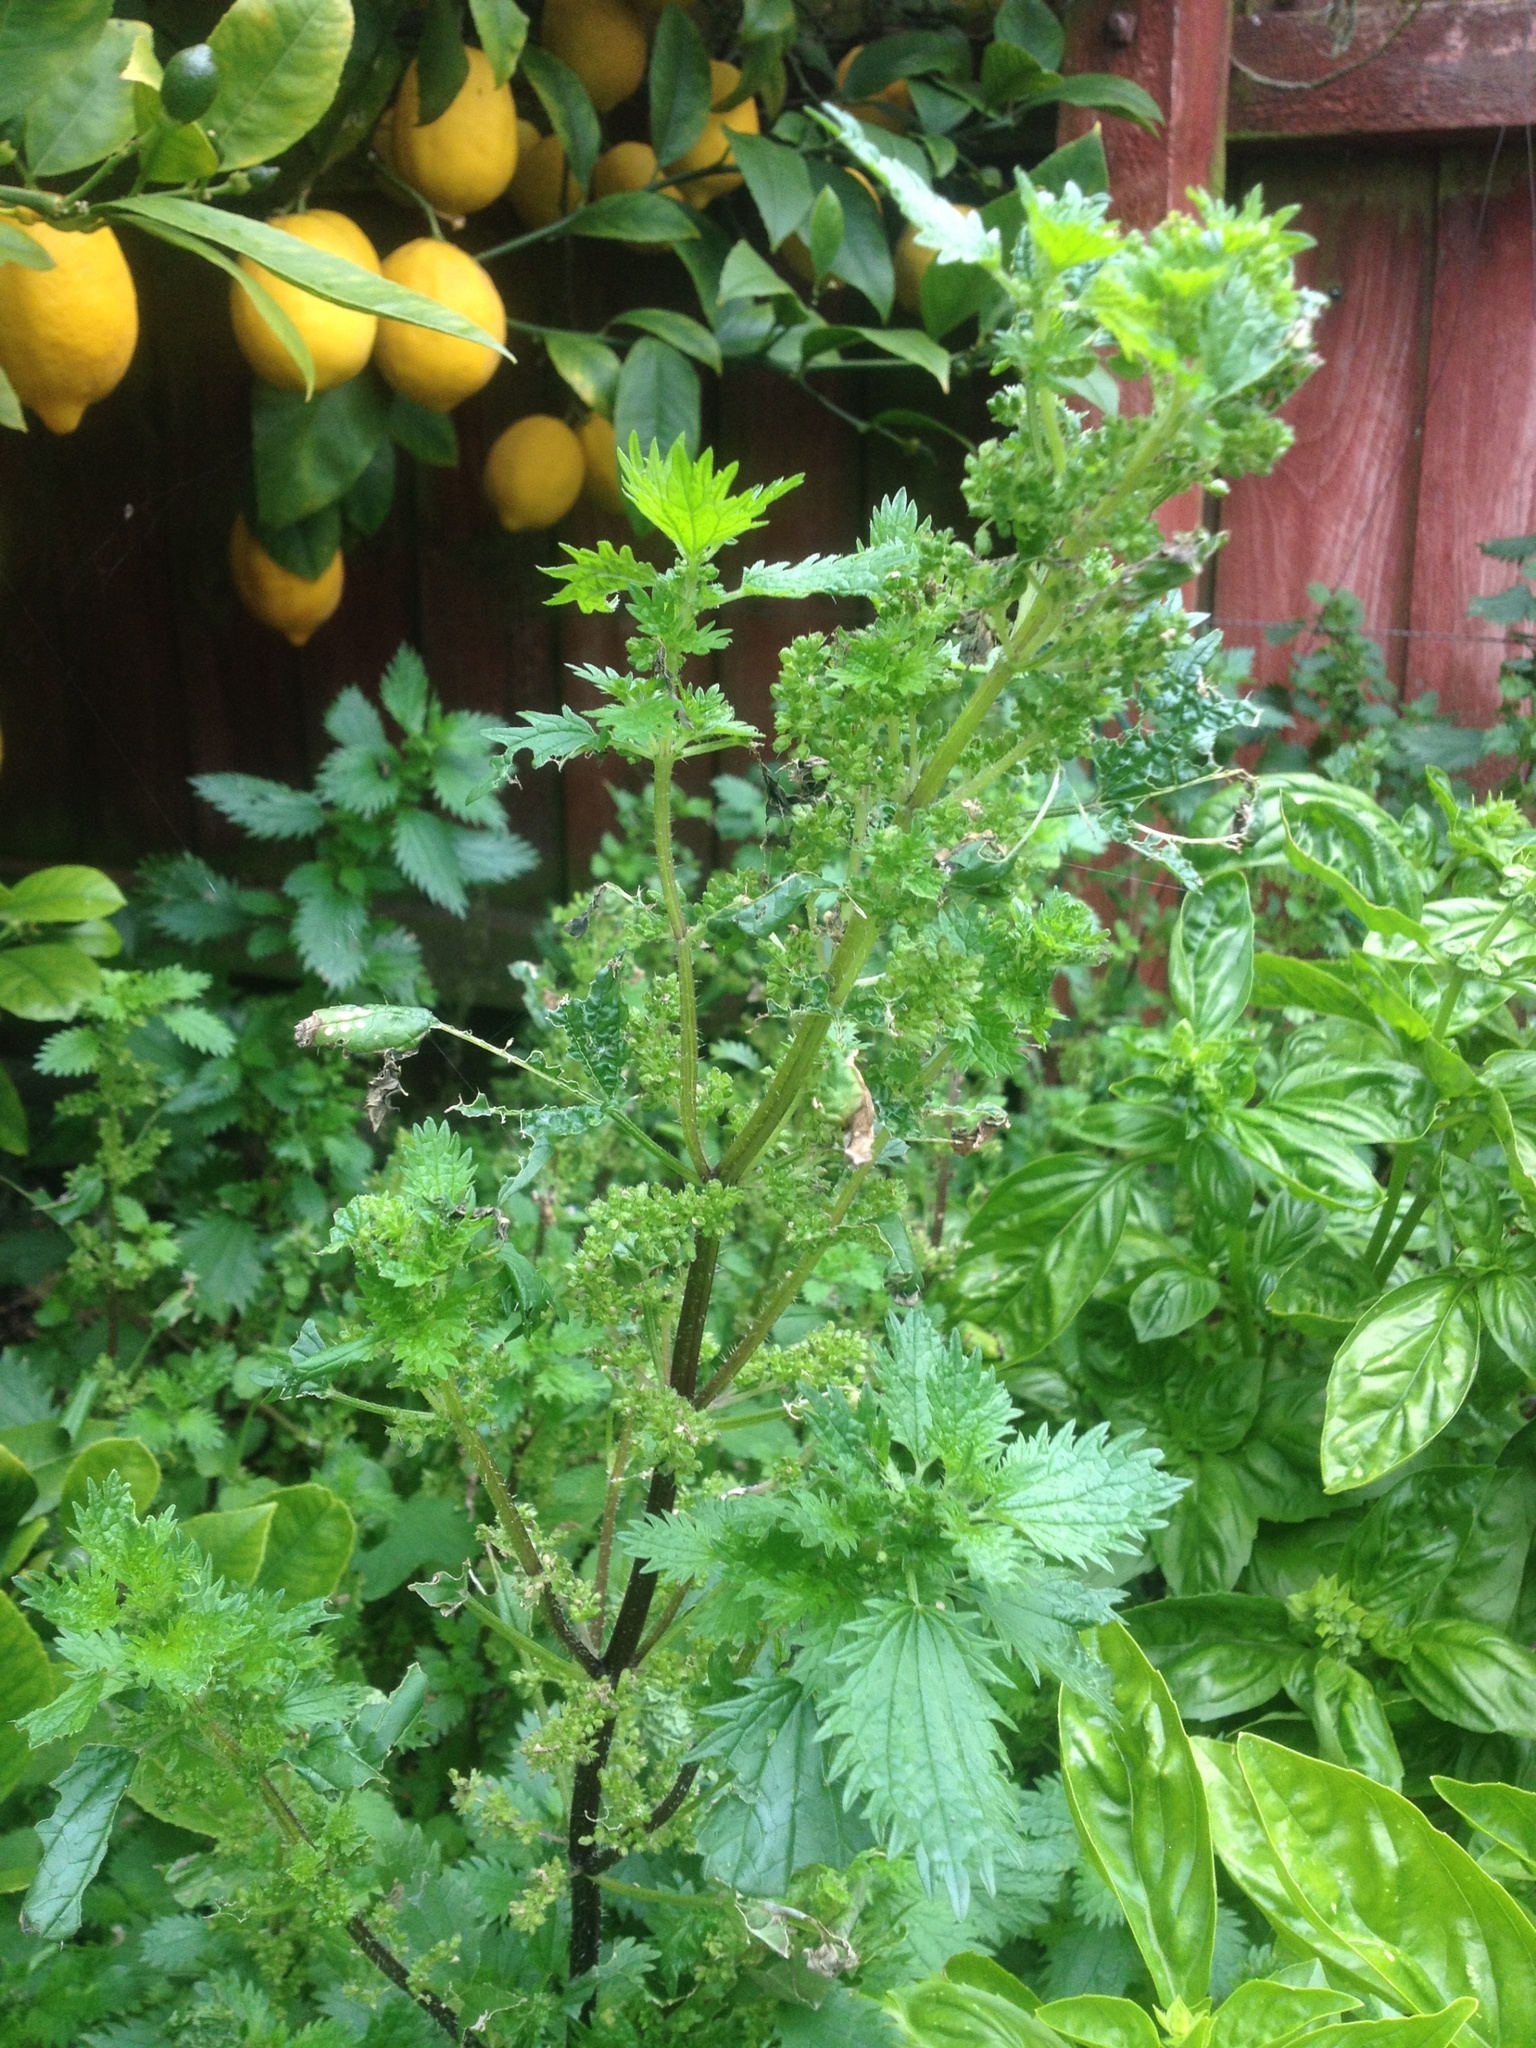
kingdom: Plantae
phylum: Tracheophyta
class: Magnoliopsida
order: Rosales
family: Urticaceae
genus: Urtica
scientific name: Urtica urens
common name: Dwarf nettle
